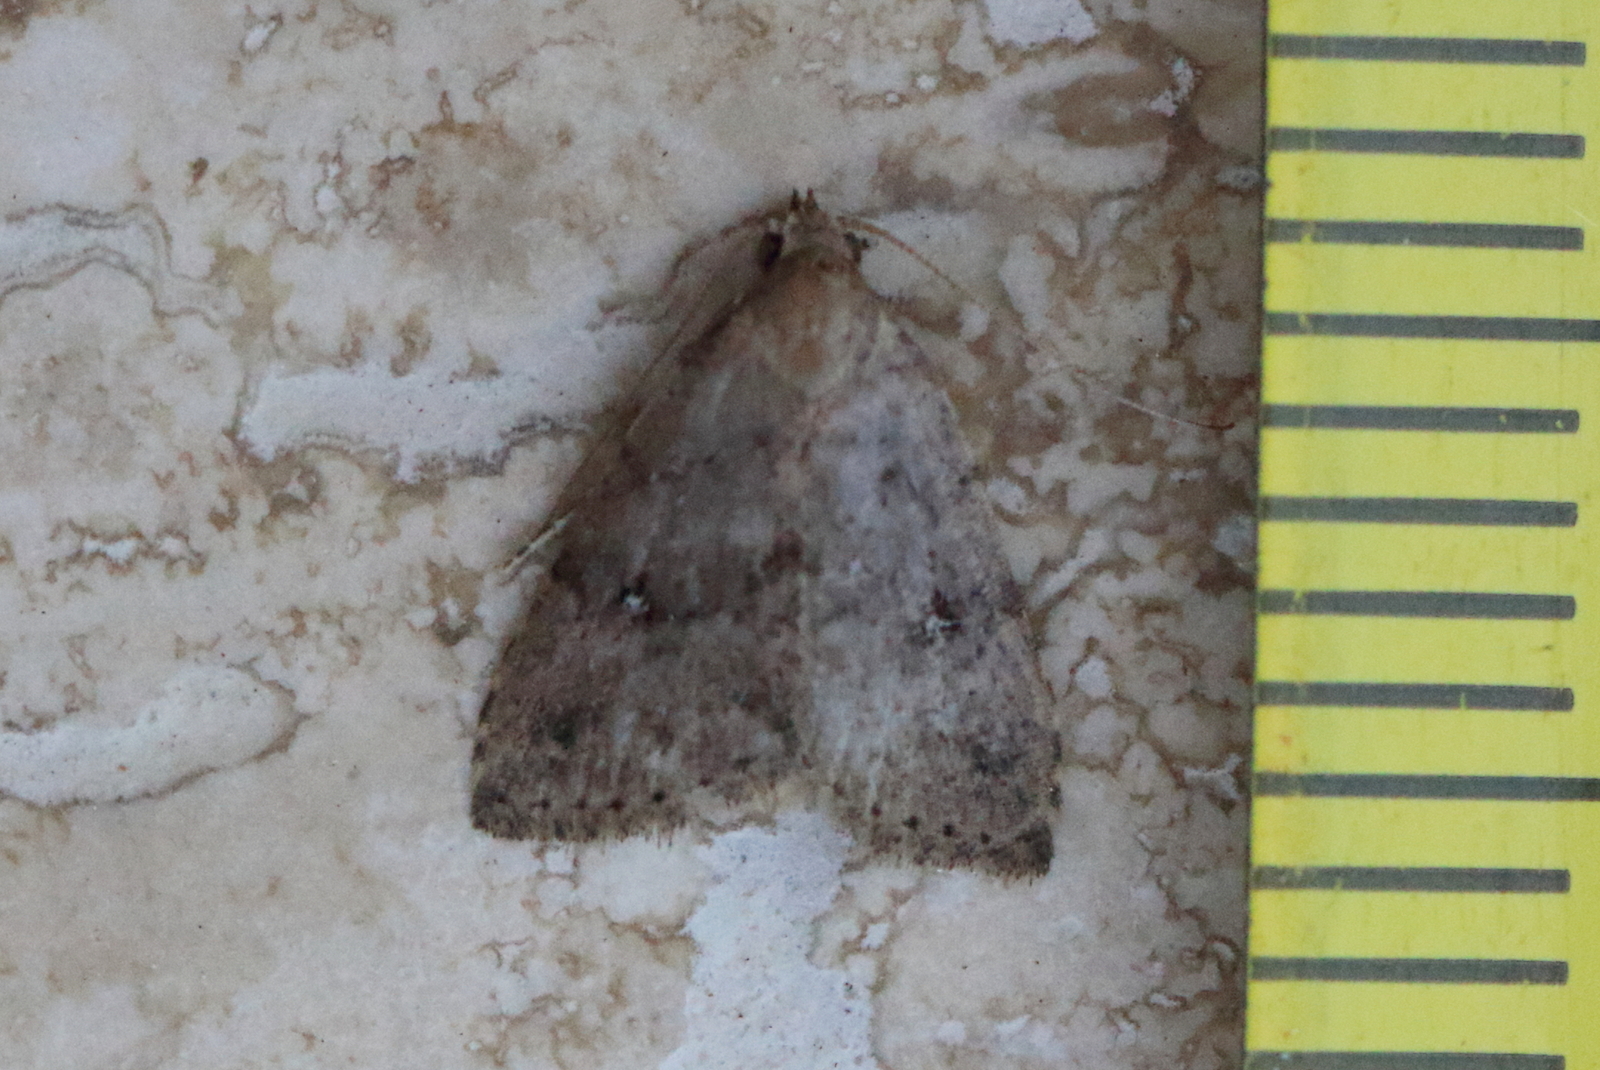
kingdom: Animalia
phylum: Arthropoda
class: Insecta
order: Lepidoptera
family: Erebidae
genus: Tolpiodes
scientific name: Tolpiodes oligolasia
